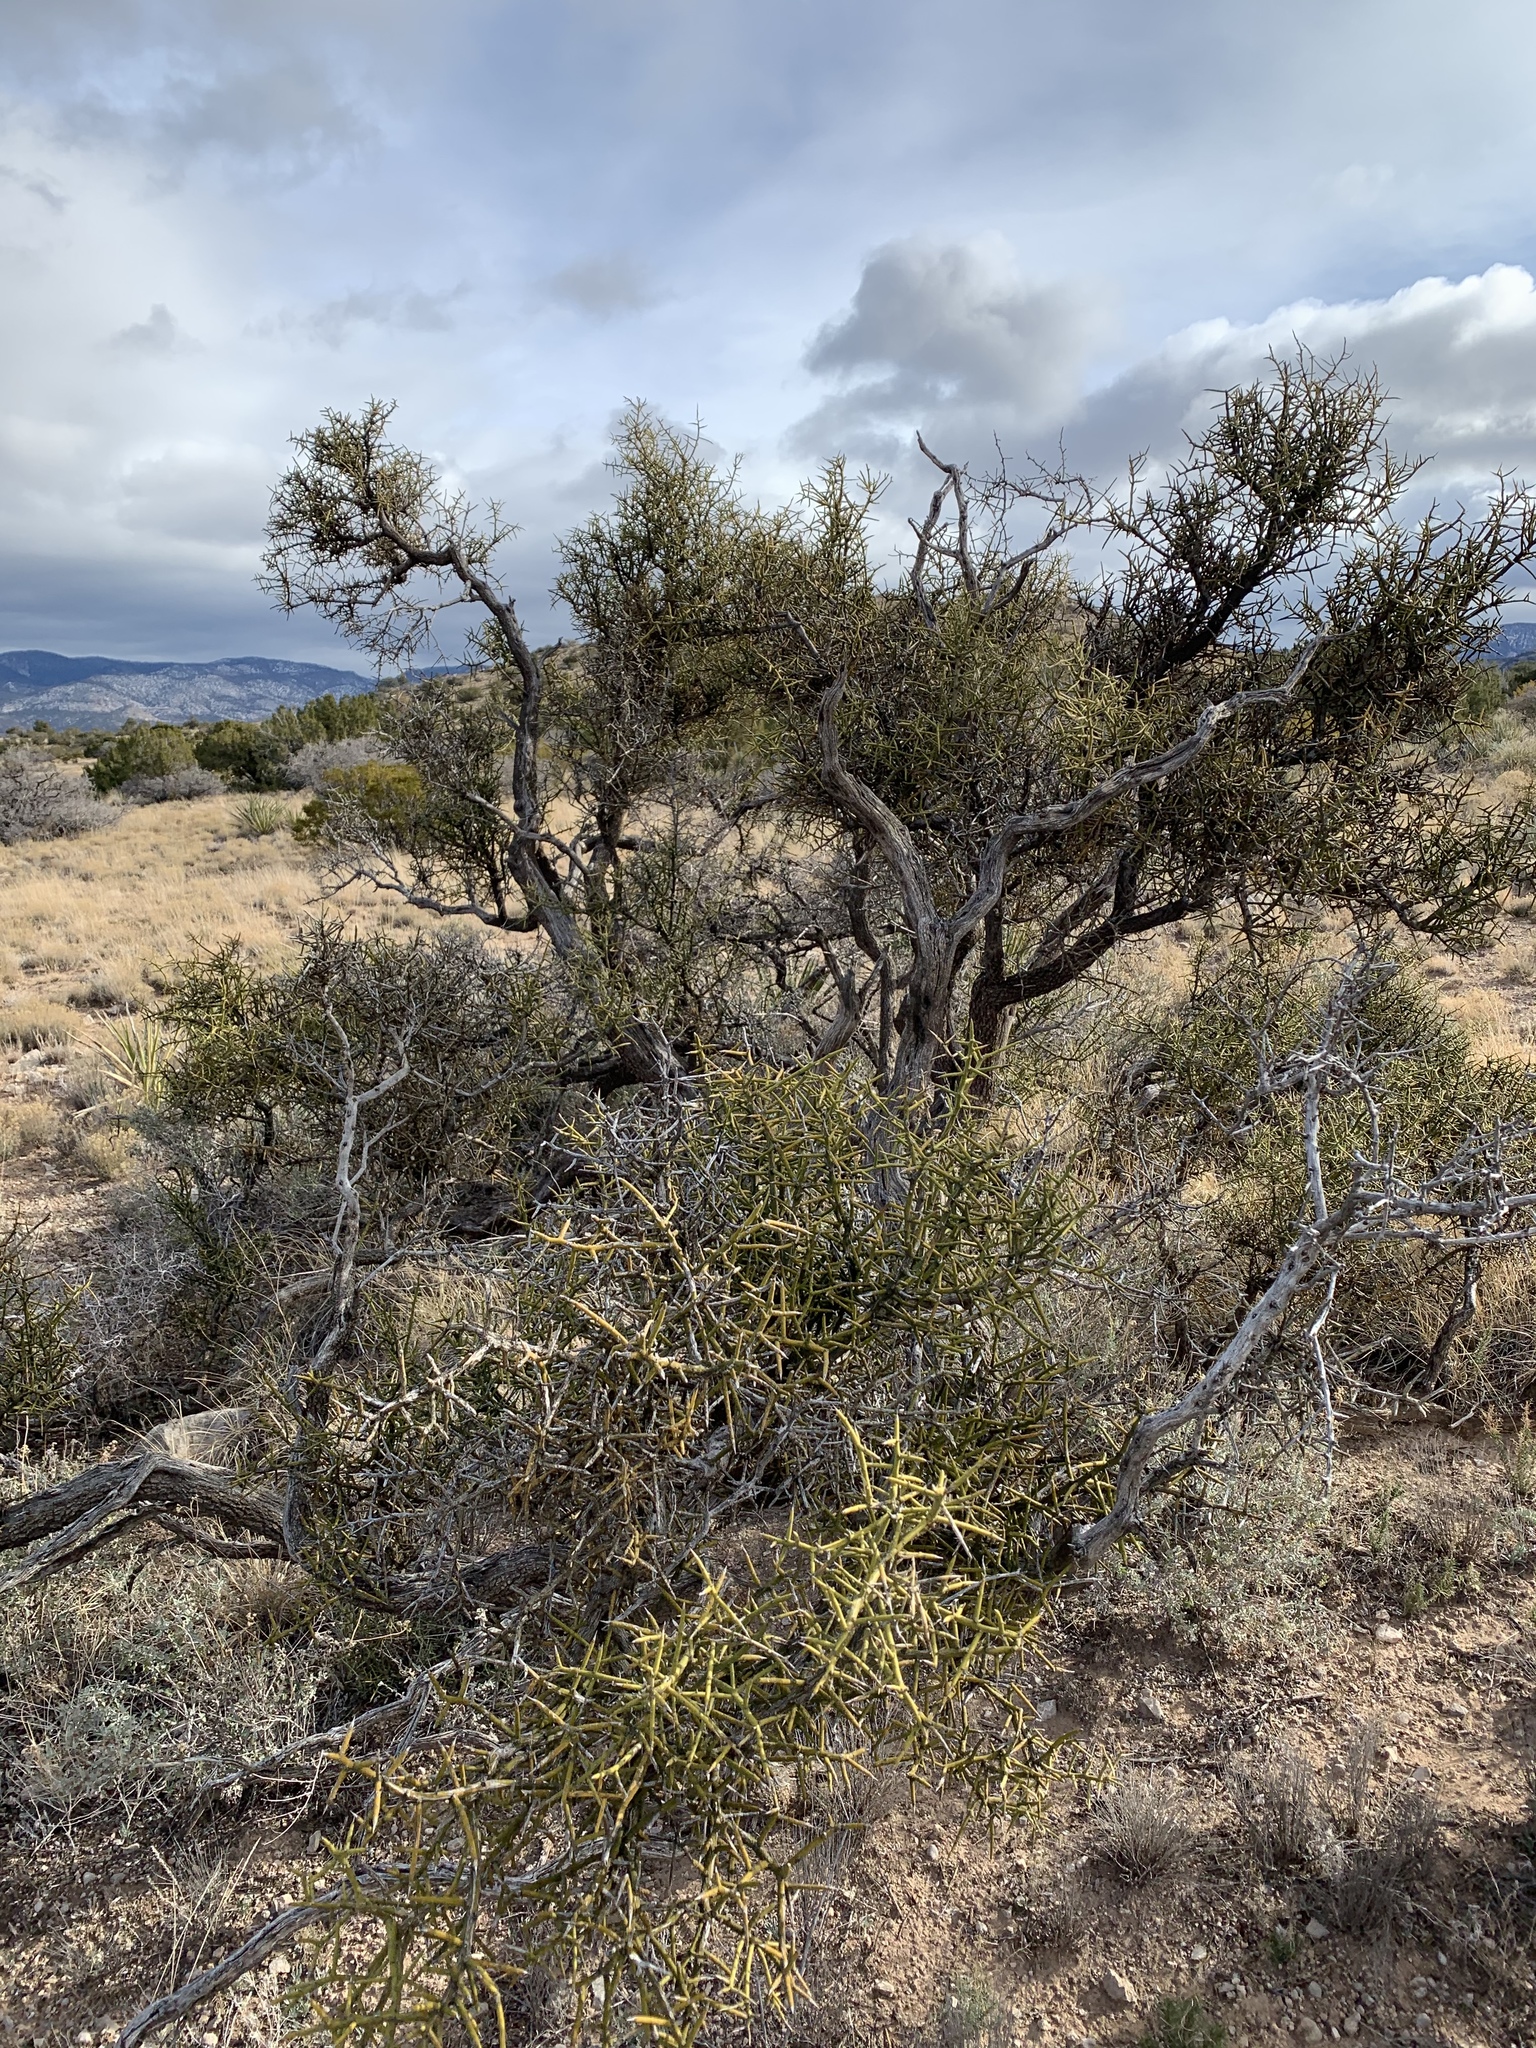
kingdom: Plantae
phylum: Tracheophyta
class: Magnoliopsida
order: Brassicales
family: Koeberliniaceae
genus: Koeberlinia
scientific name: Koeberlinia spinosa
